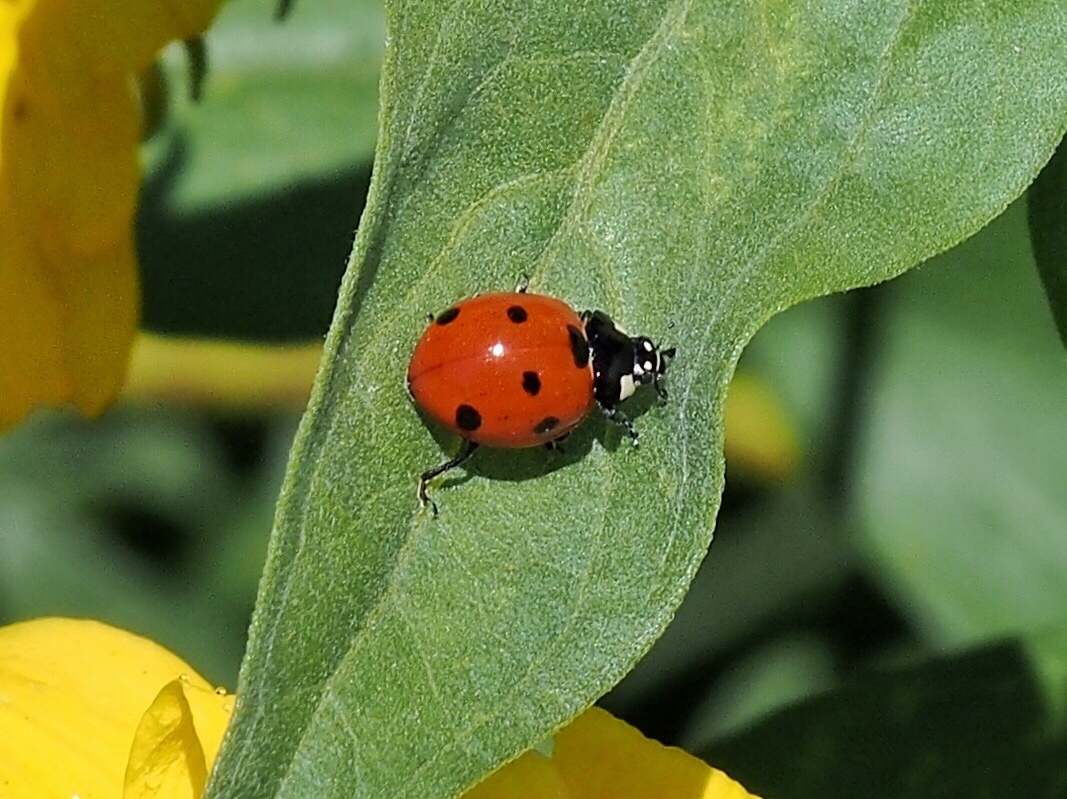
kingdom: Animalia
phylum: Arthropoda
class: Insecta
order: Coleoptera
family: Coccinellidae
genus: Coccinella
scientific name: Coccinella septempunctata
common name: Sevenspotted lady beetle
